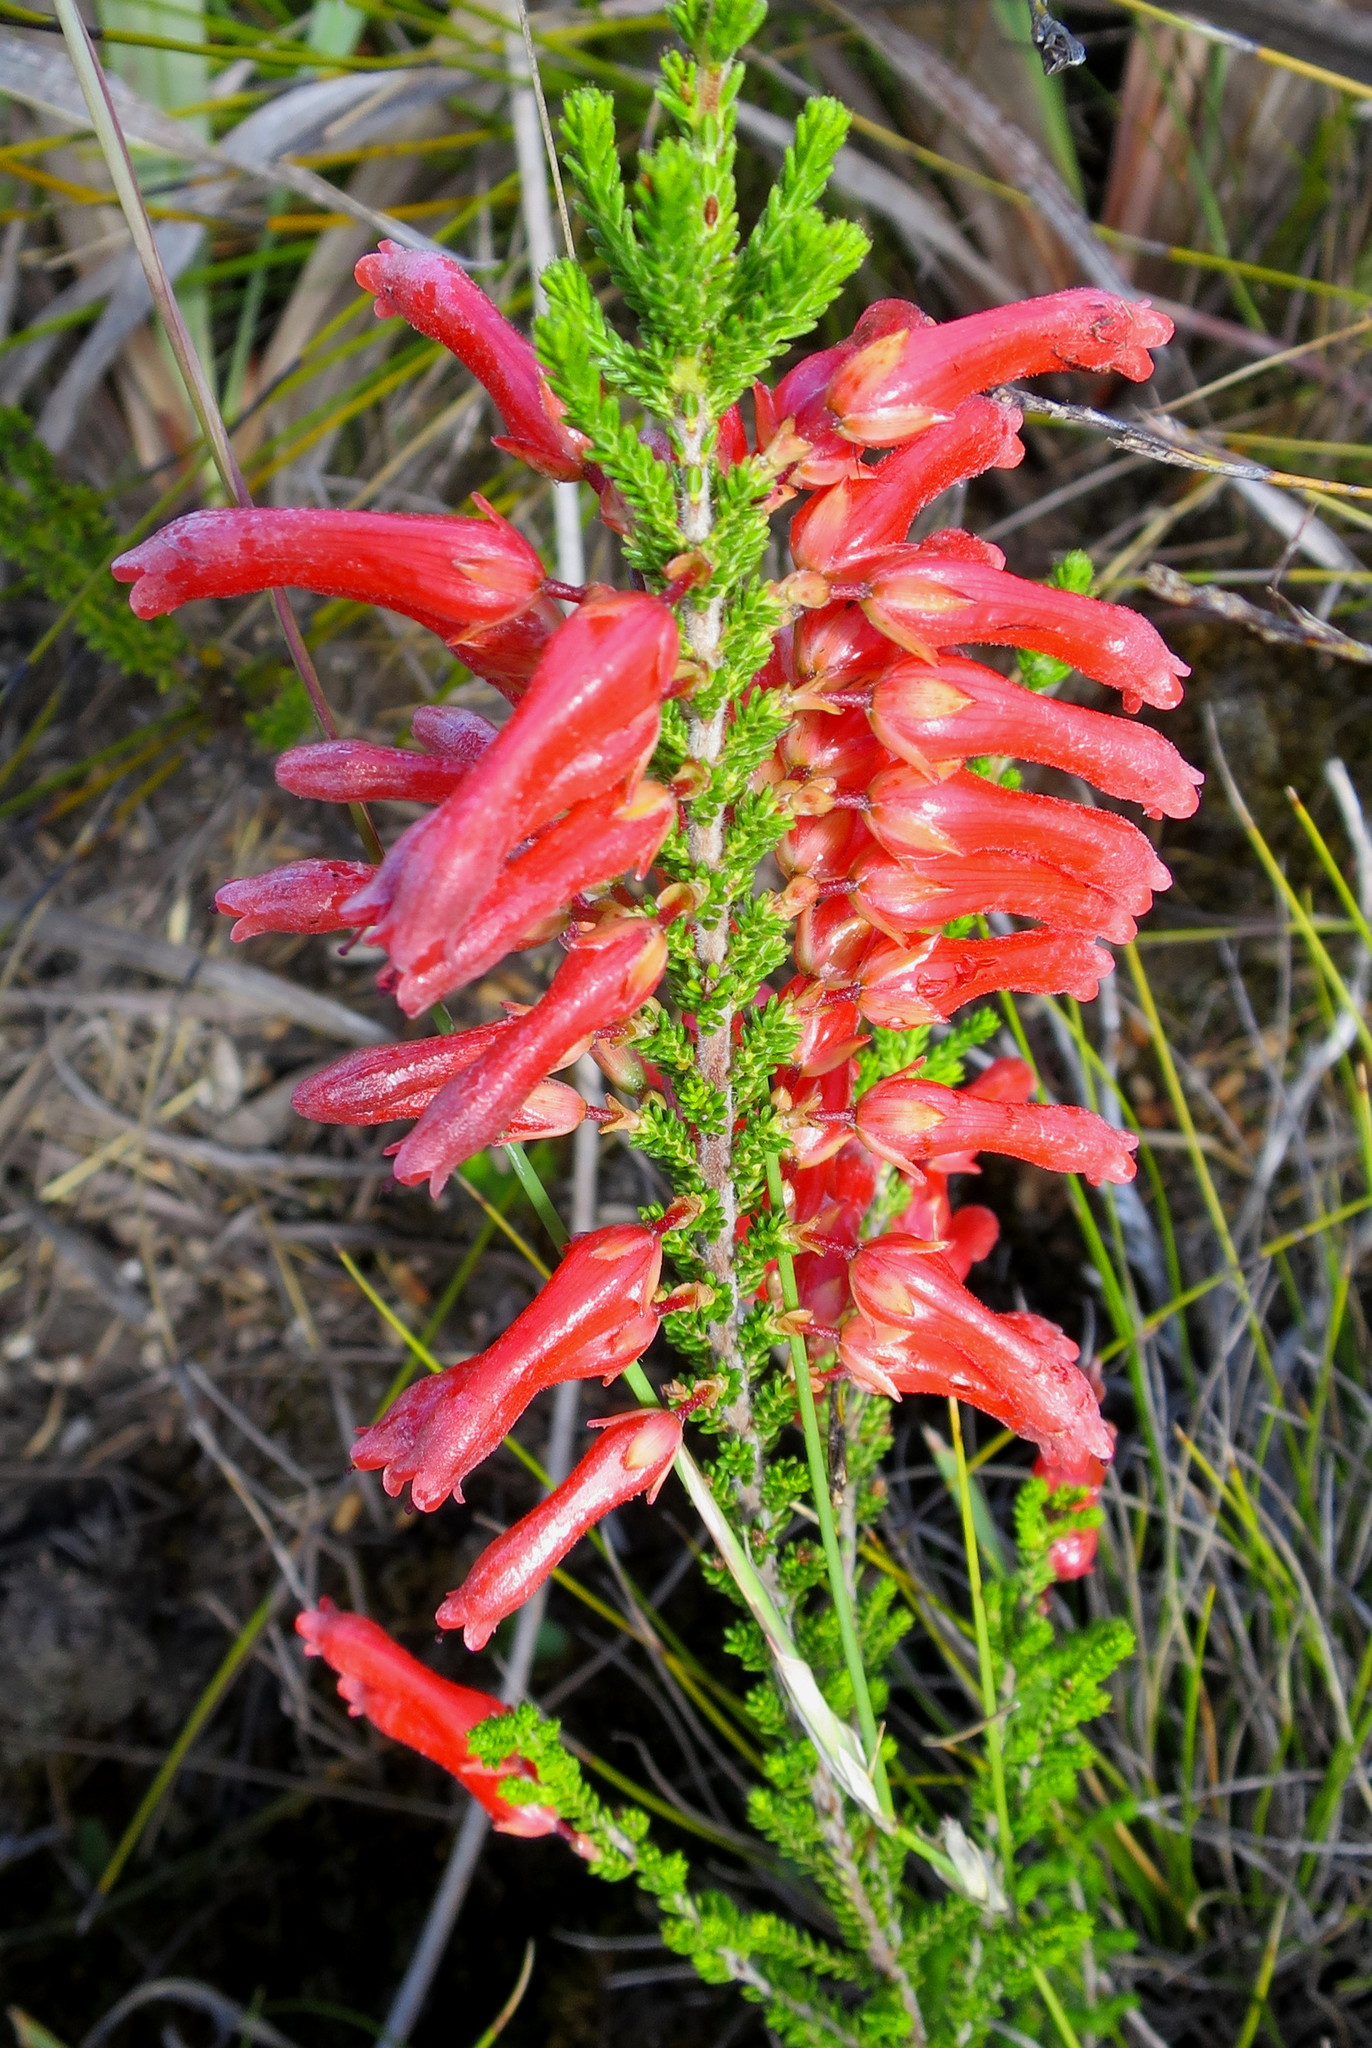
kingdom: Plantae
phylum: Tracheophyta
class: Magnoliopsida
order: Ericales
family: Ericaceae
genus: Erica
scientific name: Erica inordinata
